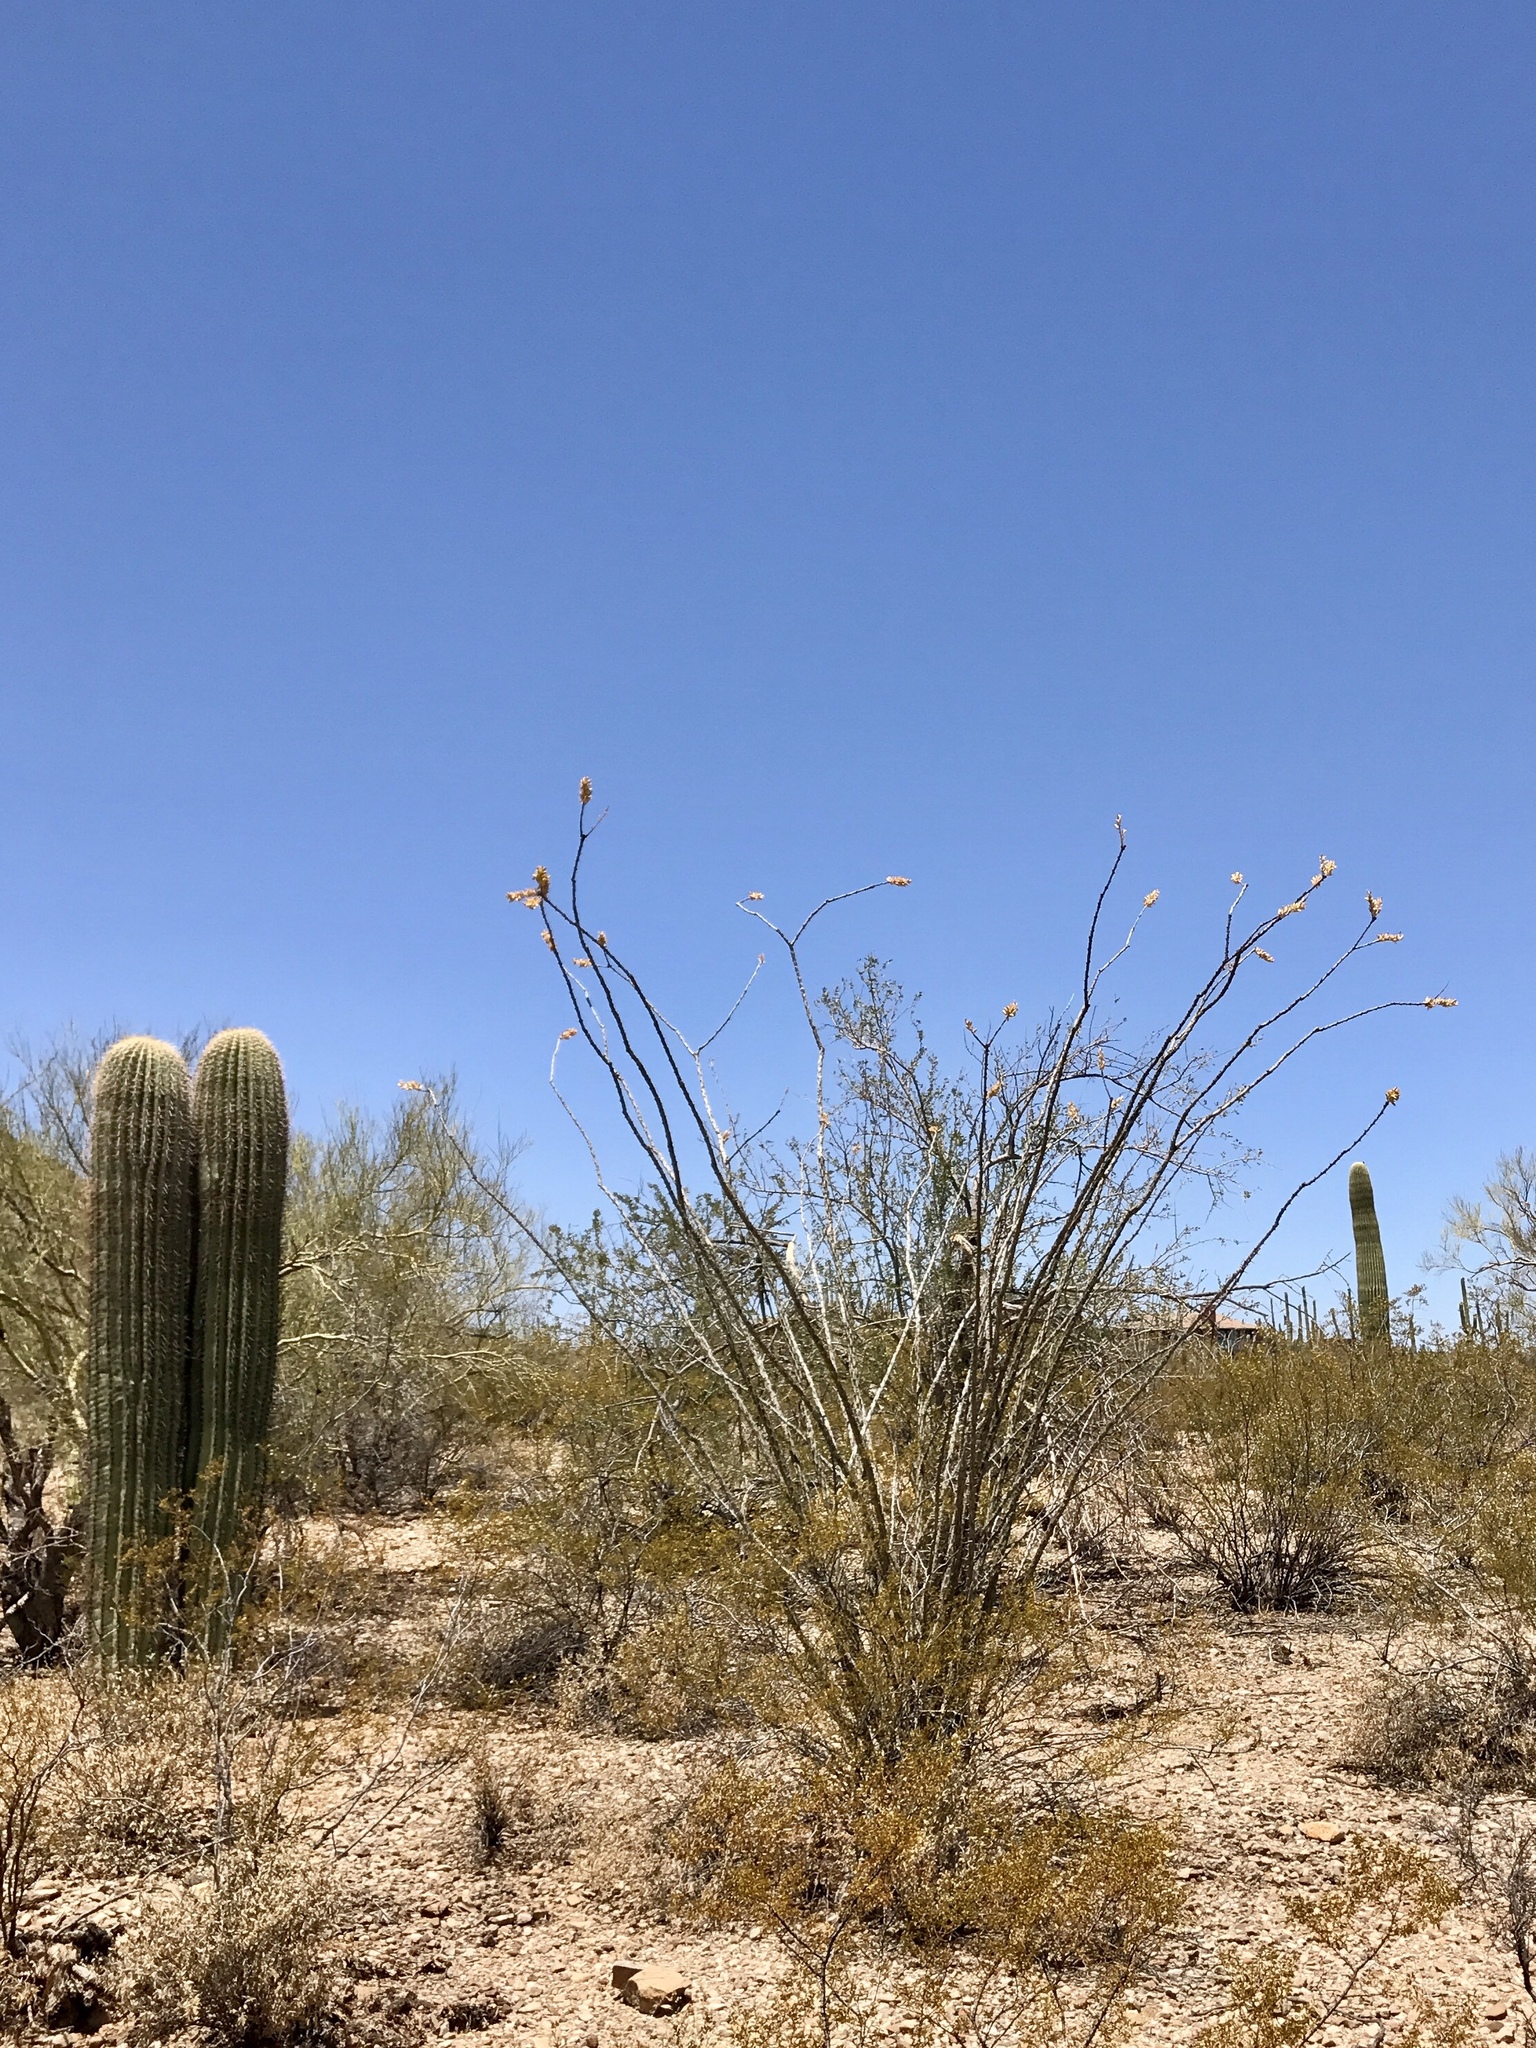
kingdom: Plantae
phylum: Tracheophyta
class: Magnoliopsida
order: Ericales
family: Fouquieriaceae
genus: Fouquieria
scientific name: Fouquieria splendens
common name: Vine-cactus
